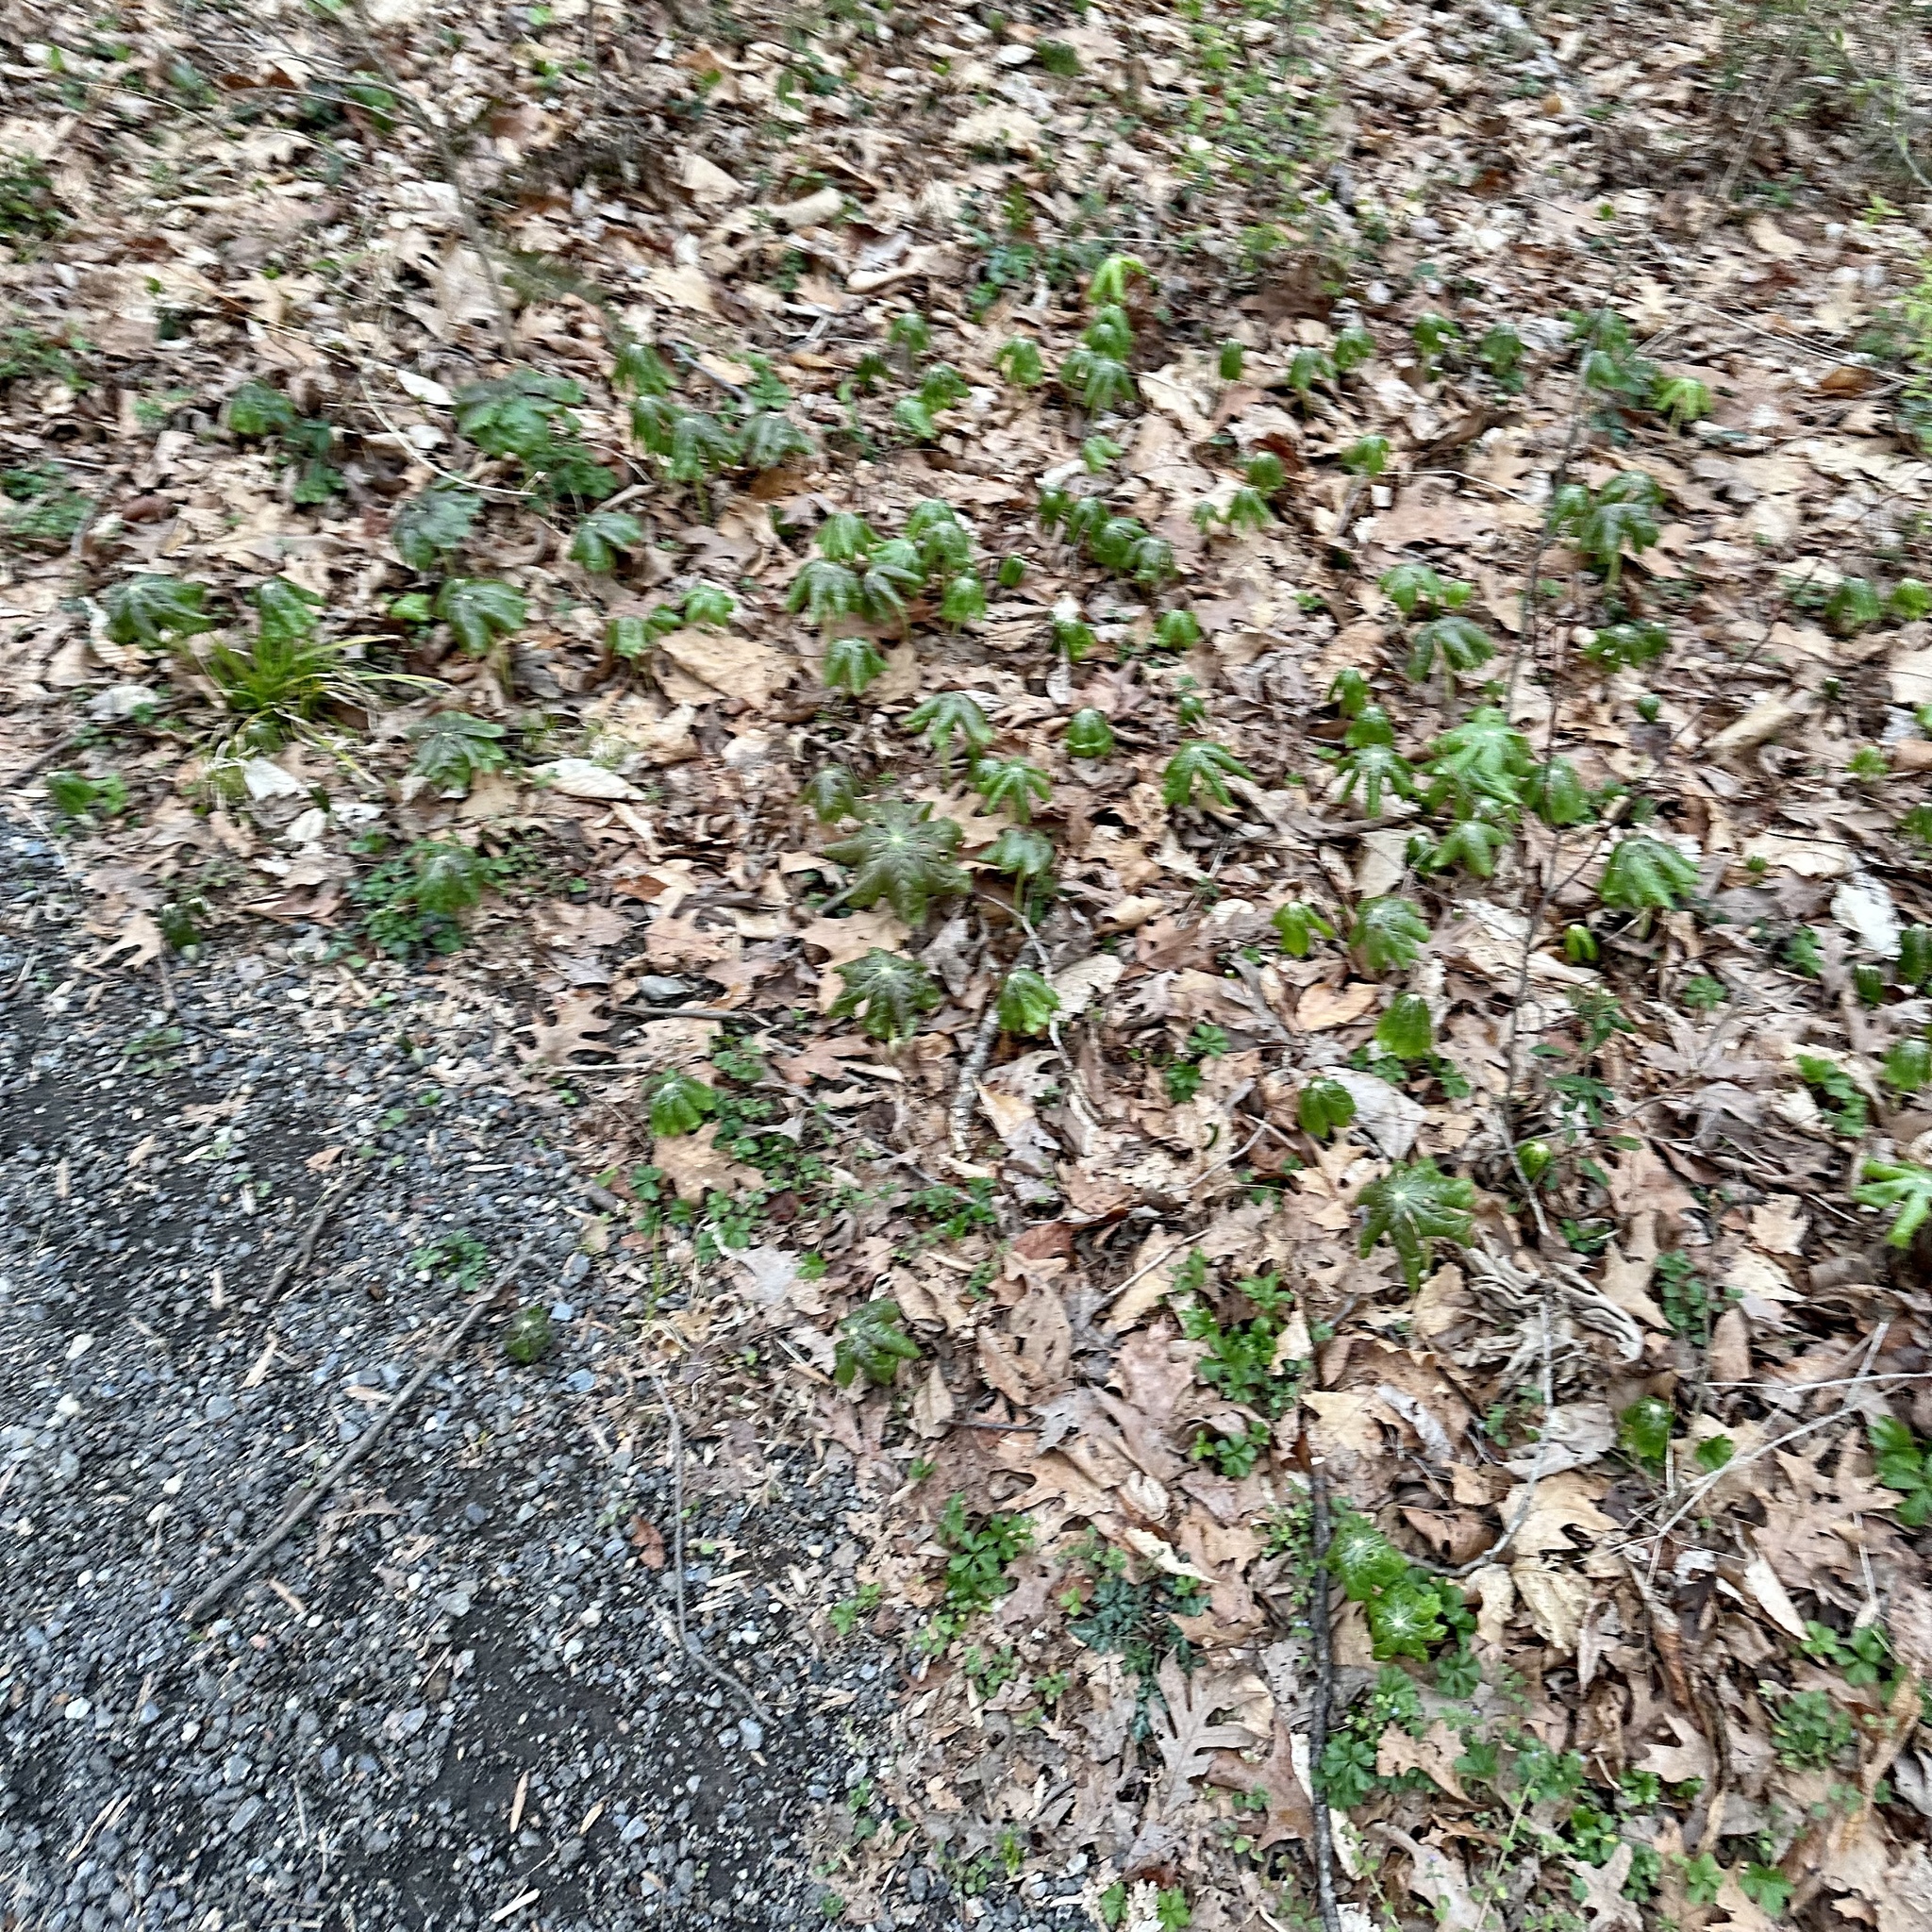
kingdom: Plantae
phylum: Tracheophyta
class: Magnoliopsida
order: Ranunculales
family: Berberidaceae
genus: Podophyllum
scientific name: Podophyllum peltatum
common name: Wild mandrake
